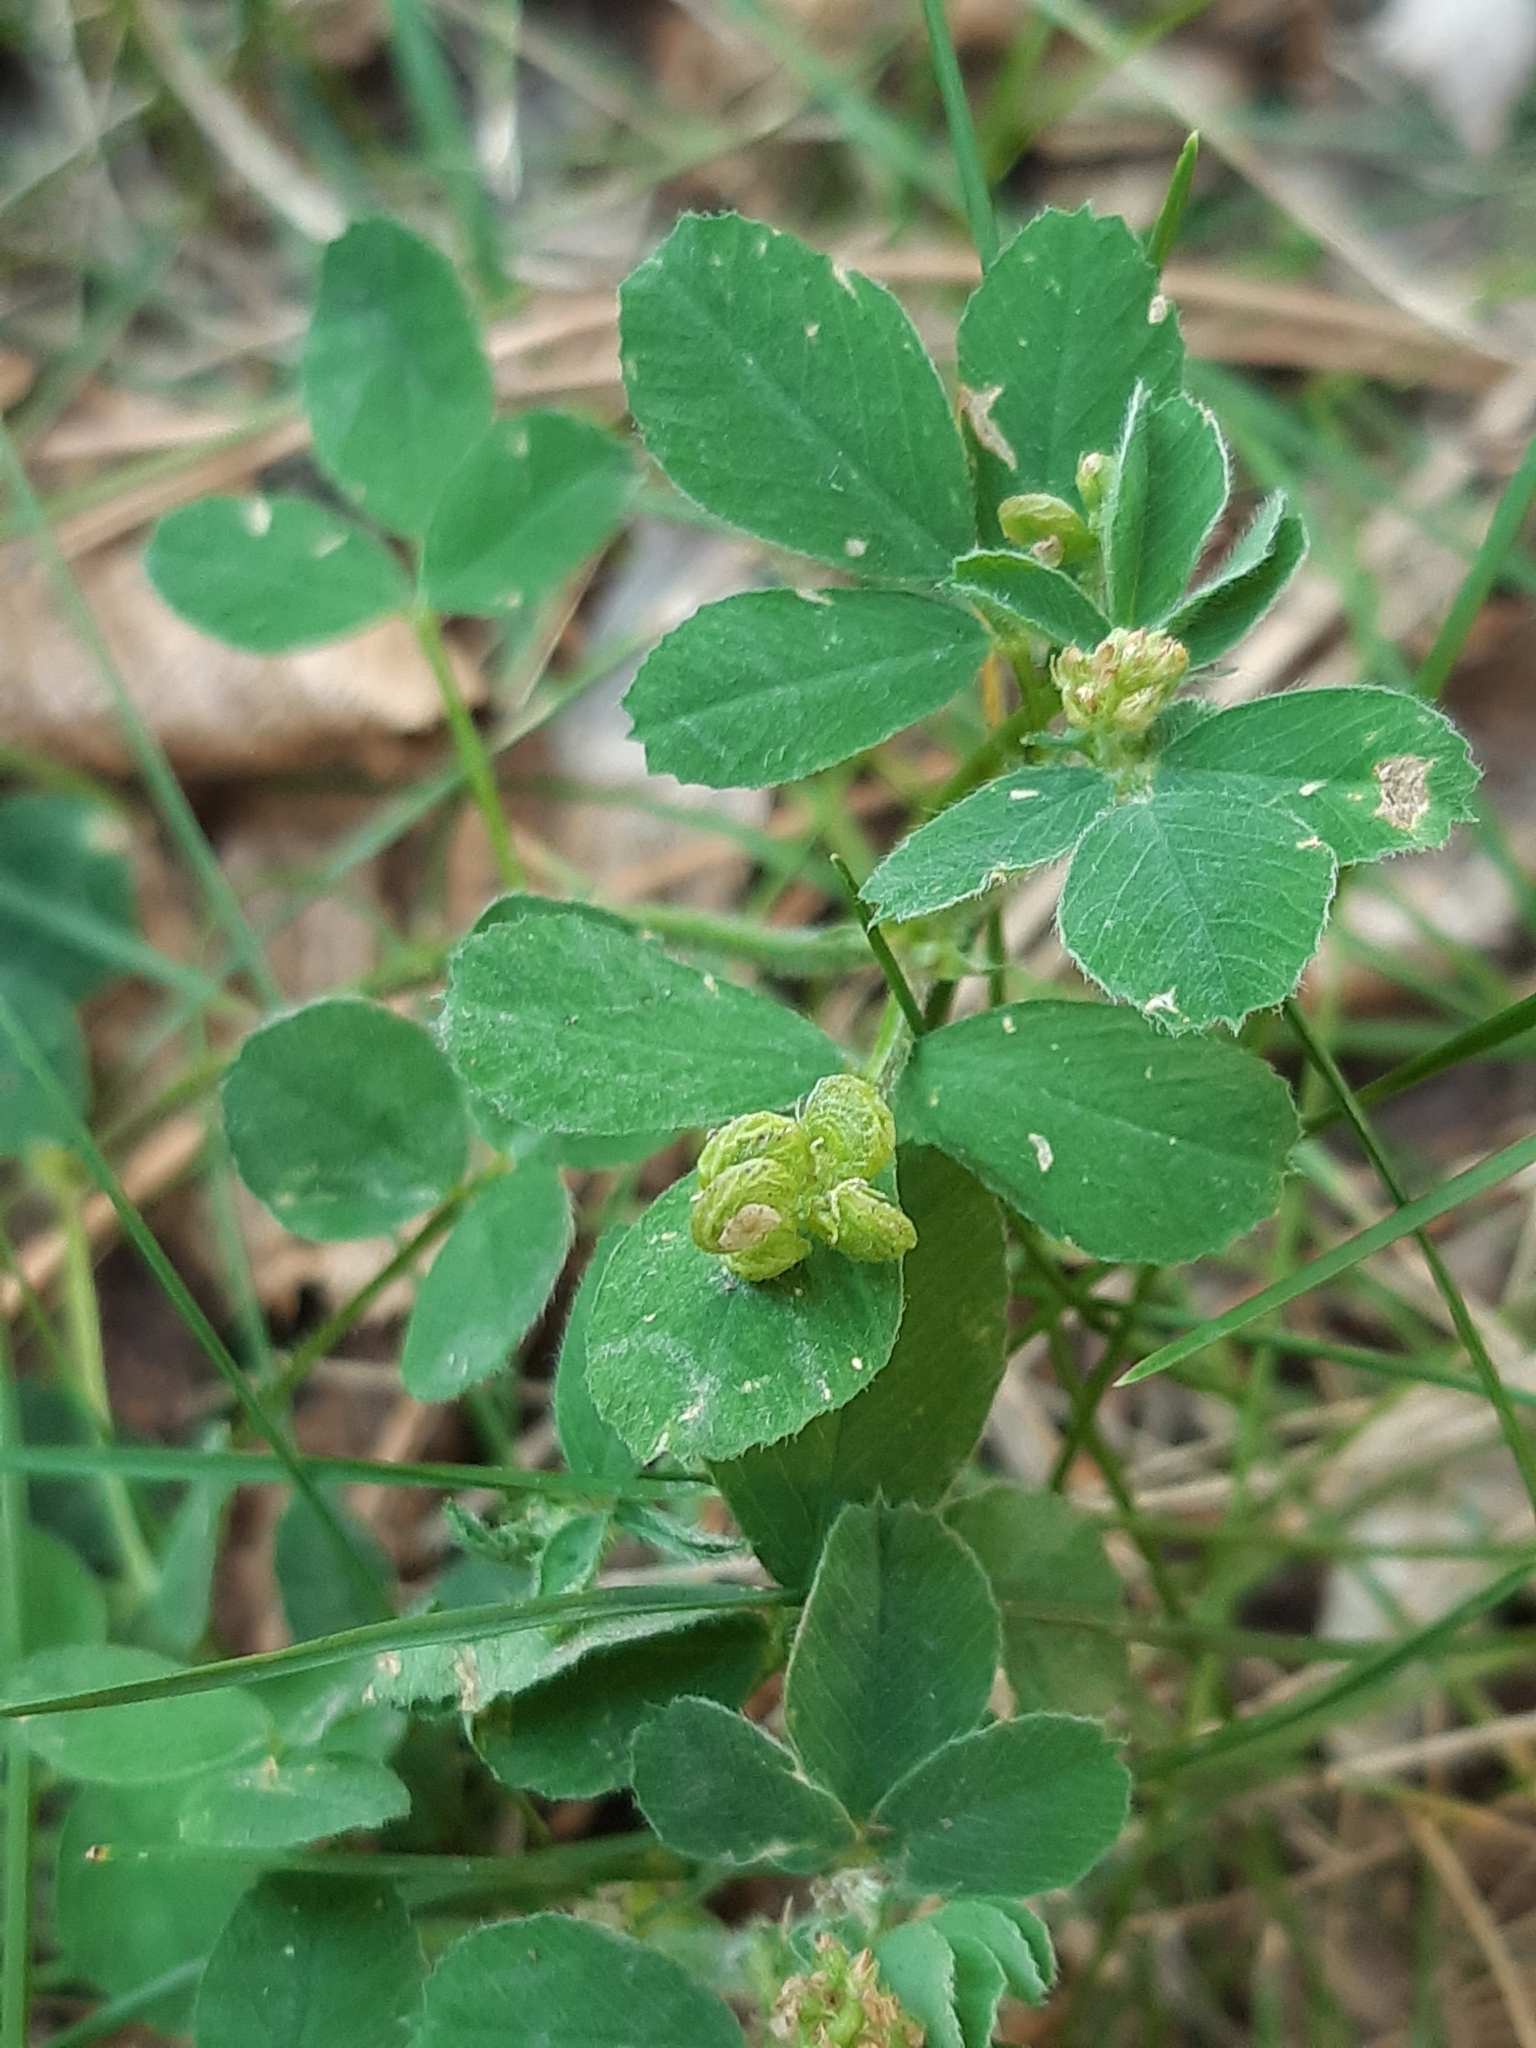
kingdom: Plantae
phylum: Tracheophyta
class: Magnoliopsida
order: Fabales
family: Fabaceae
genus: Medicago
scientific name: Medicago lupulina
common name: Black medick
